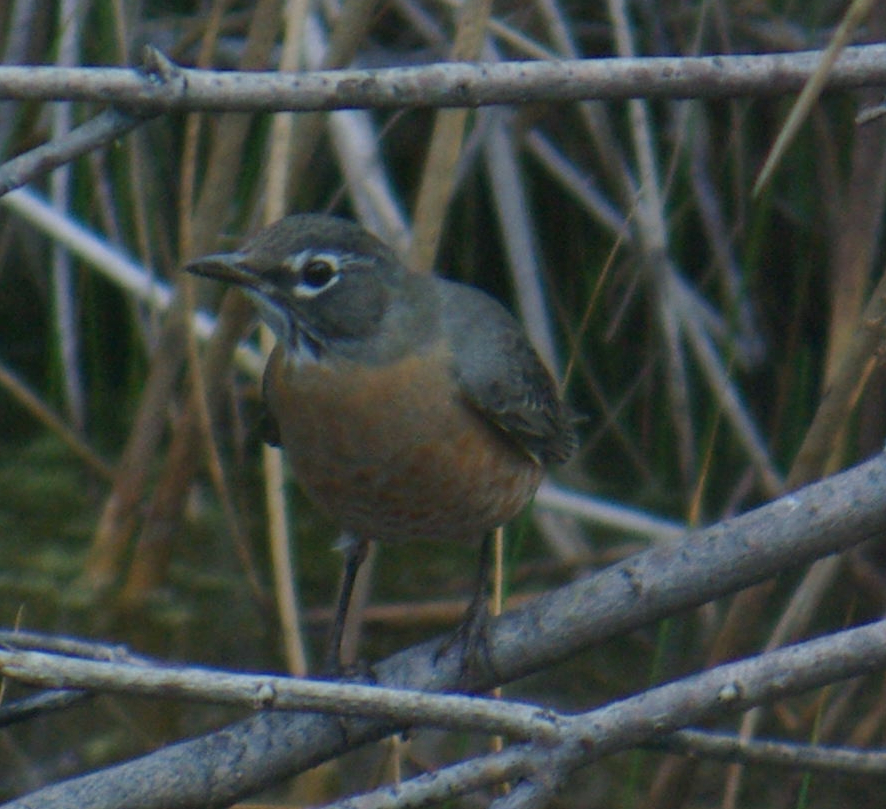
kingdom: Animalia
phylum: Chordata
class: Aves
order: Passeriformes
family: Turdidae
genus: Turdus
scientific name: Turdus migratorius
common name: American robin
